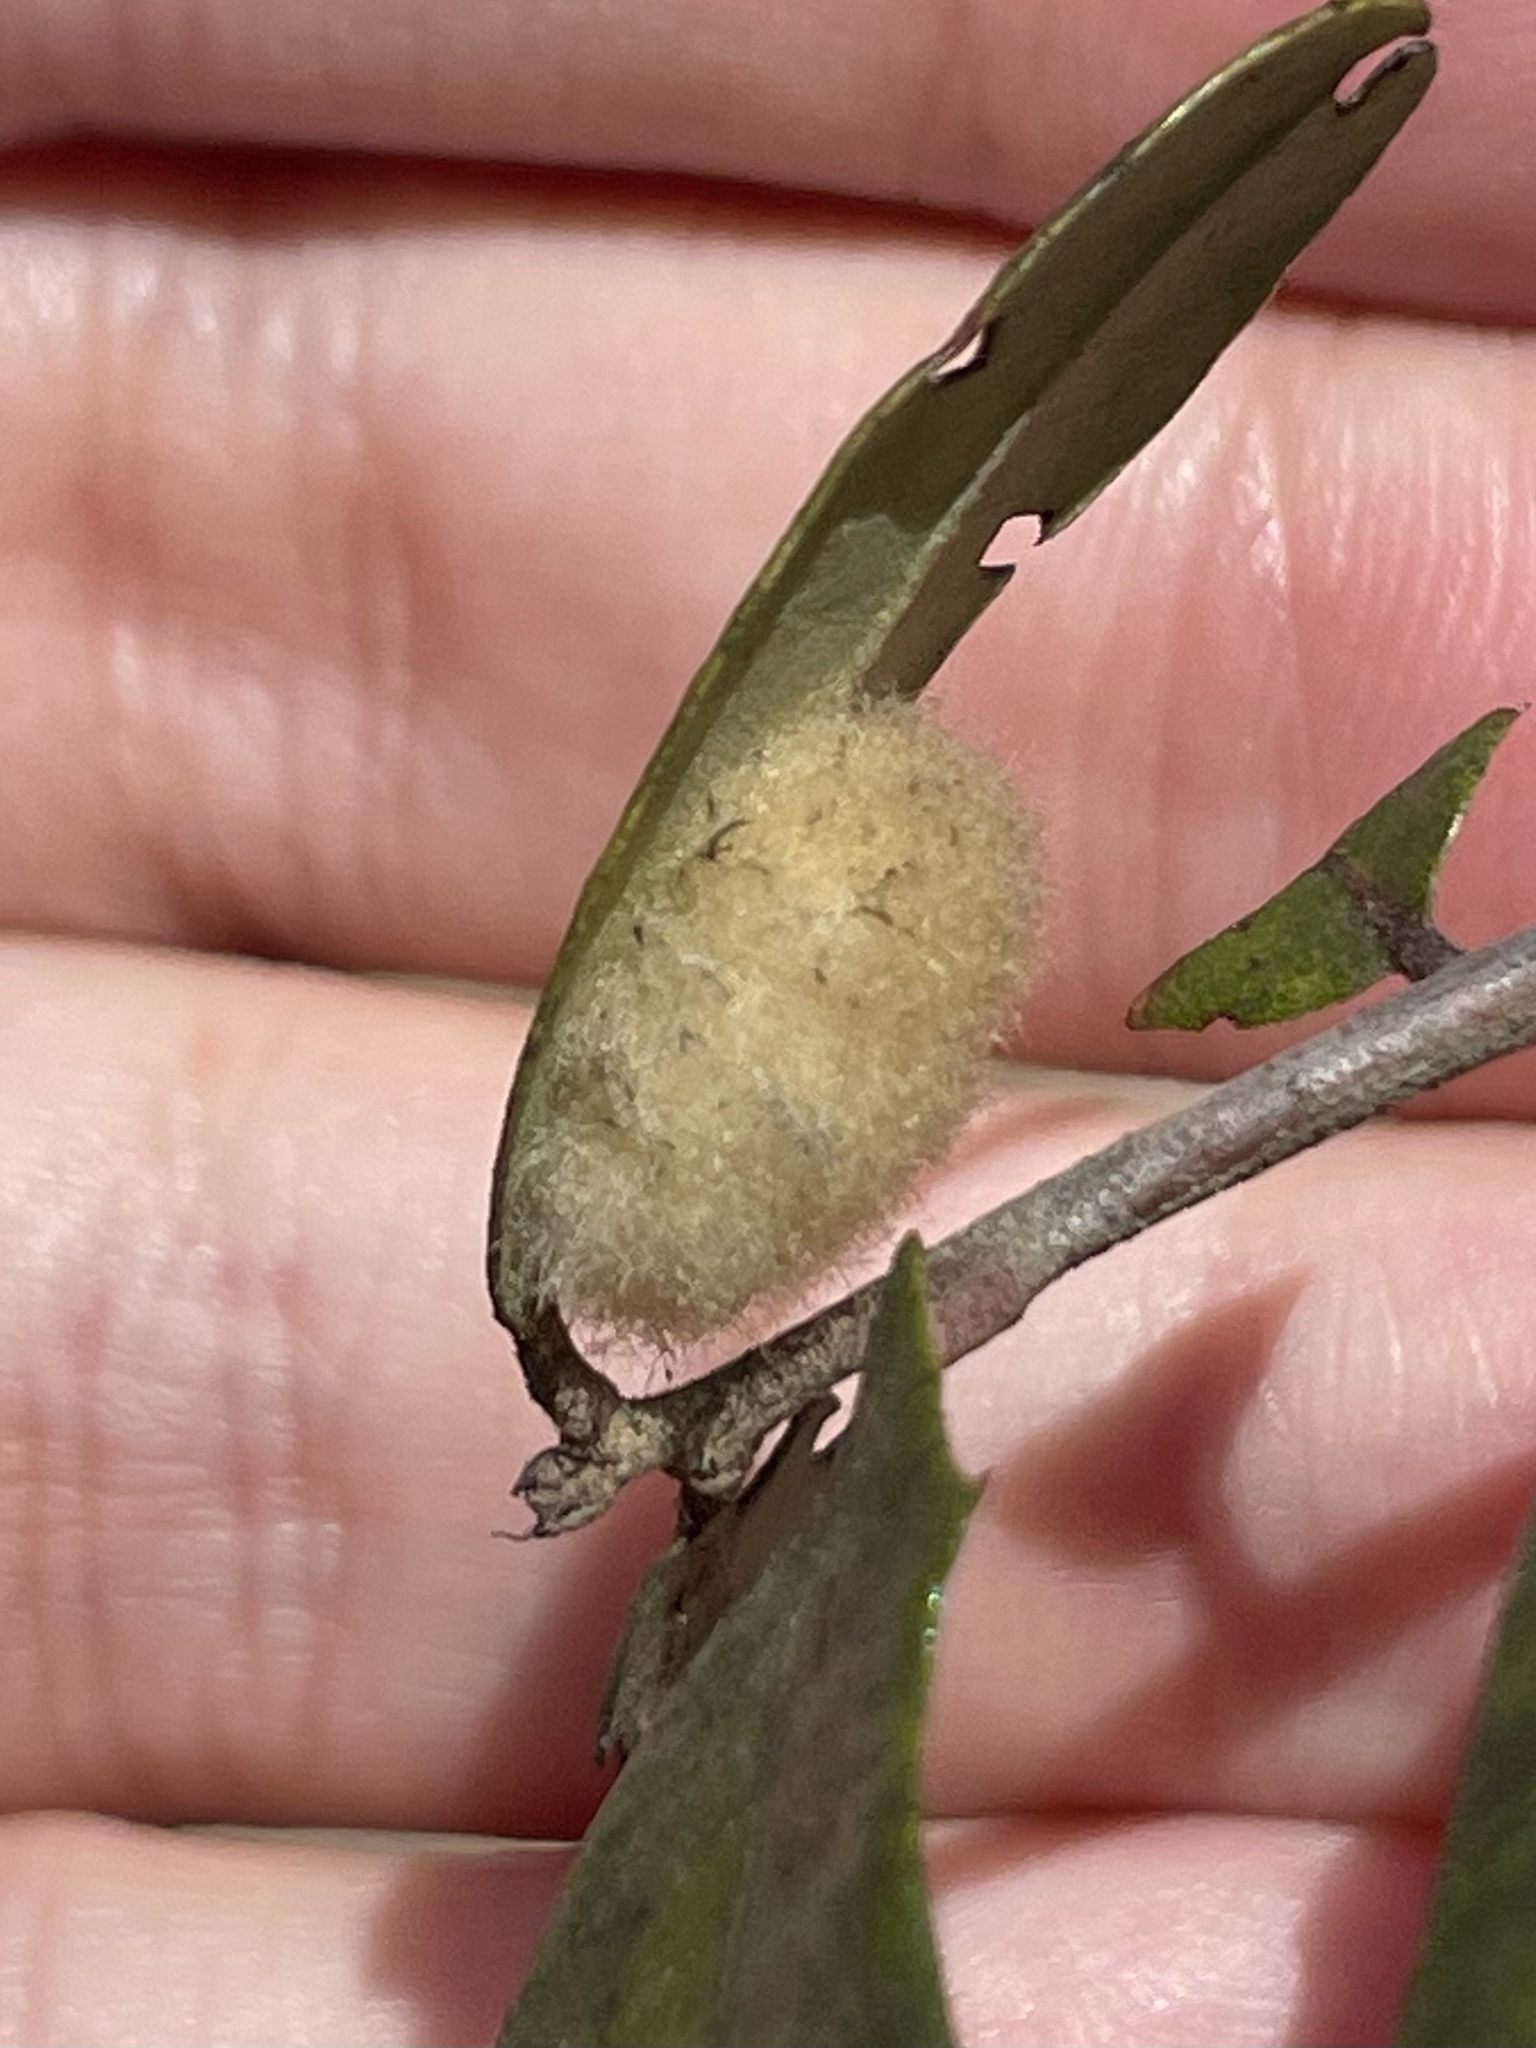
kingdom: Animalia
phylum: Arthropoda
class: Insecta
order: Hymenoptera
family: Cynipidae
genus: Andricus
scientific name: Andricus Druon quercuslanigerum
